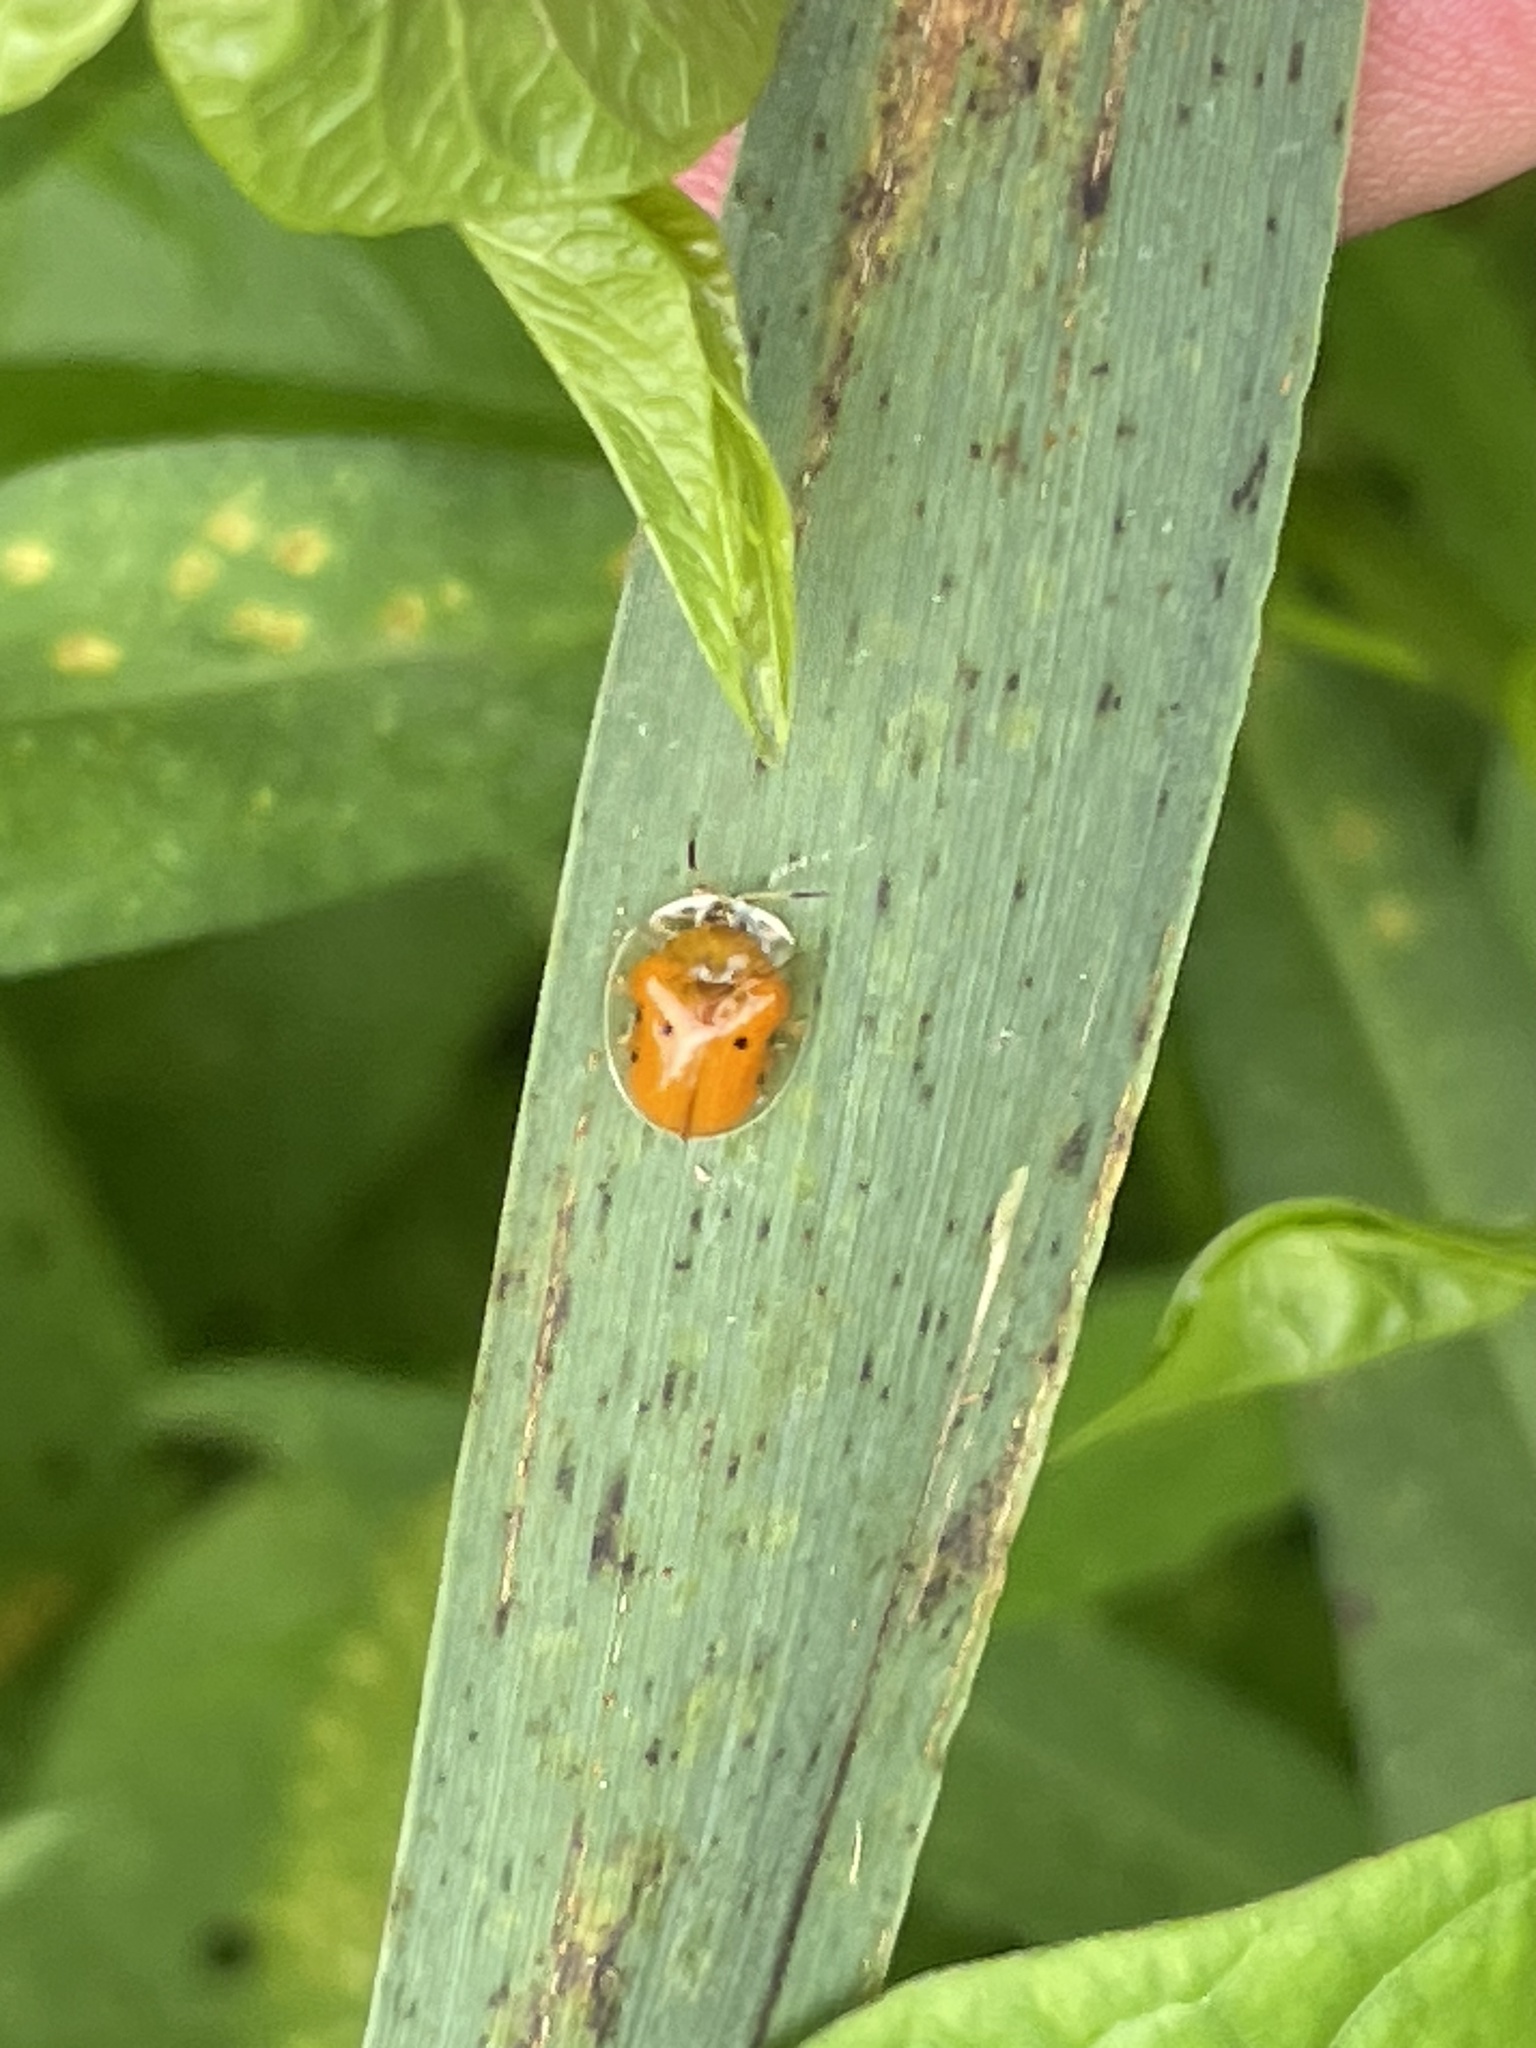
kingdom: Animalia
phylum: Arthropoda
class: Insecta
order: Coleoptera
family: Chrysomelidae
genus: Charidotella
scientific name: Charidotella sexpunctata
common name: Golden tortoise beetle
